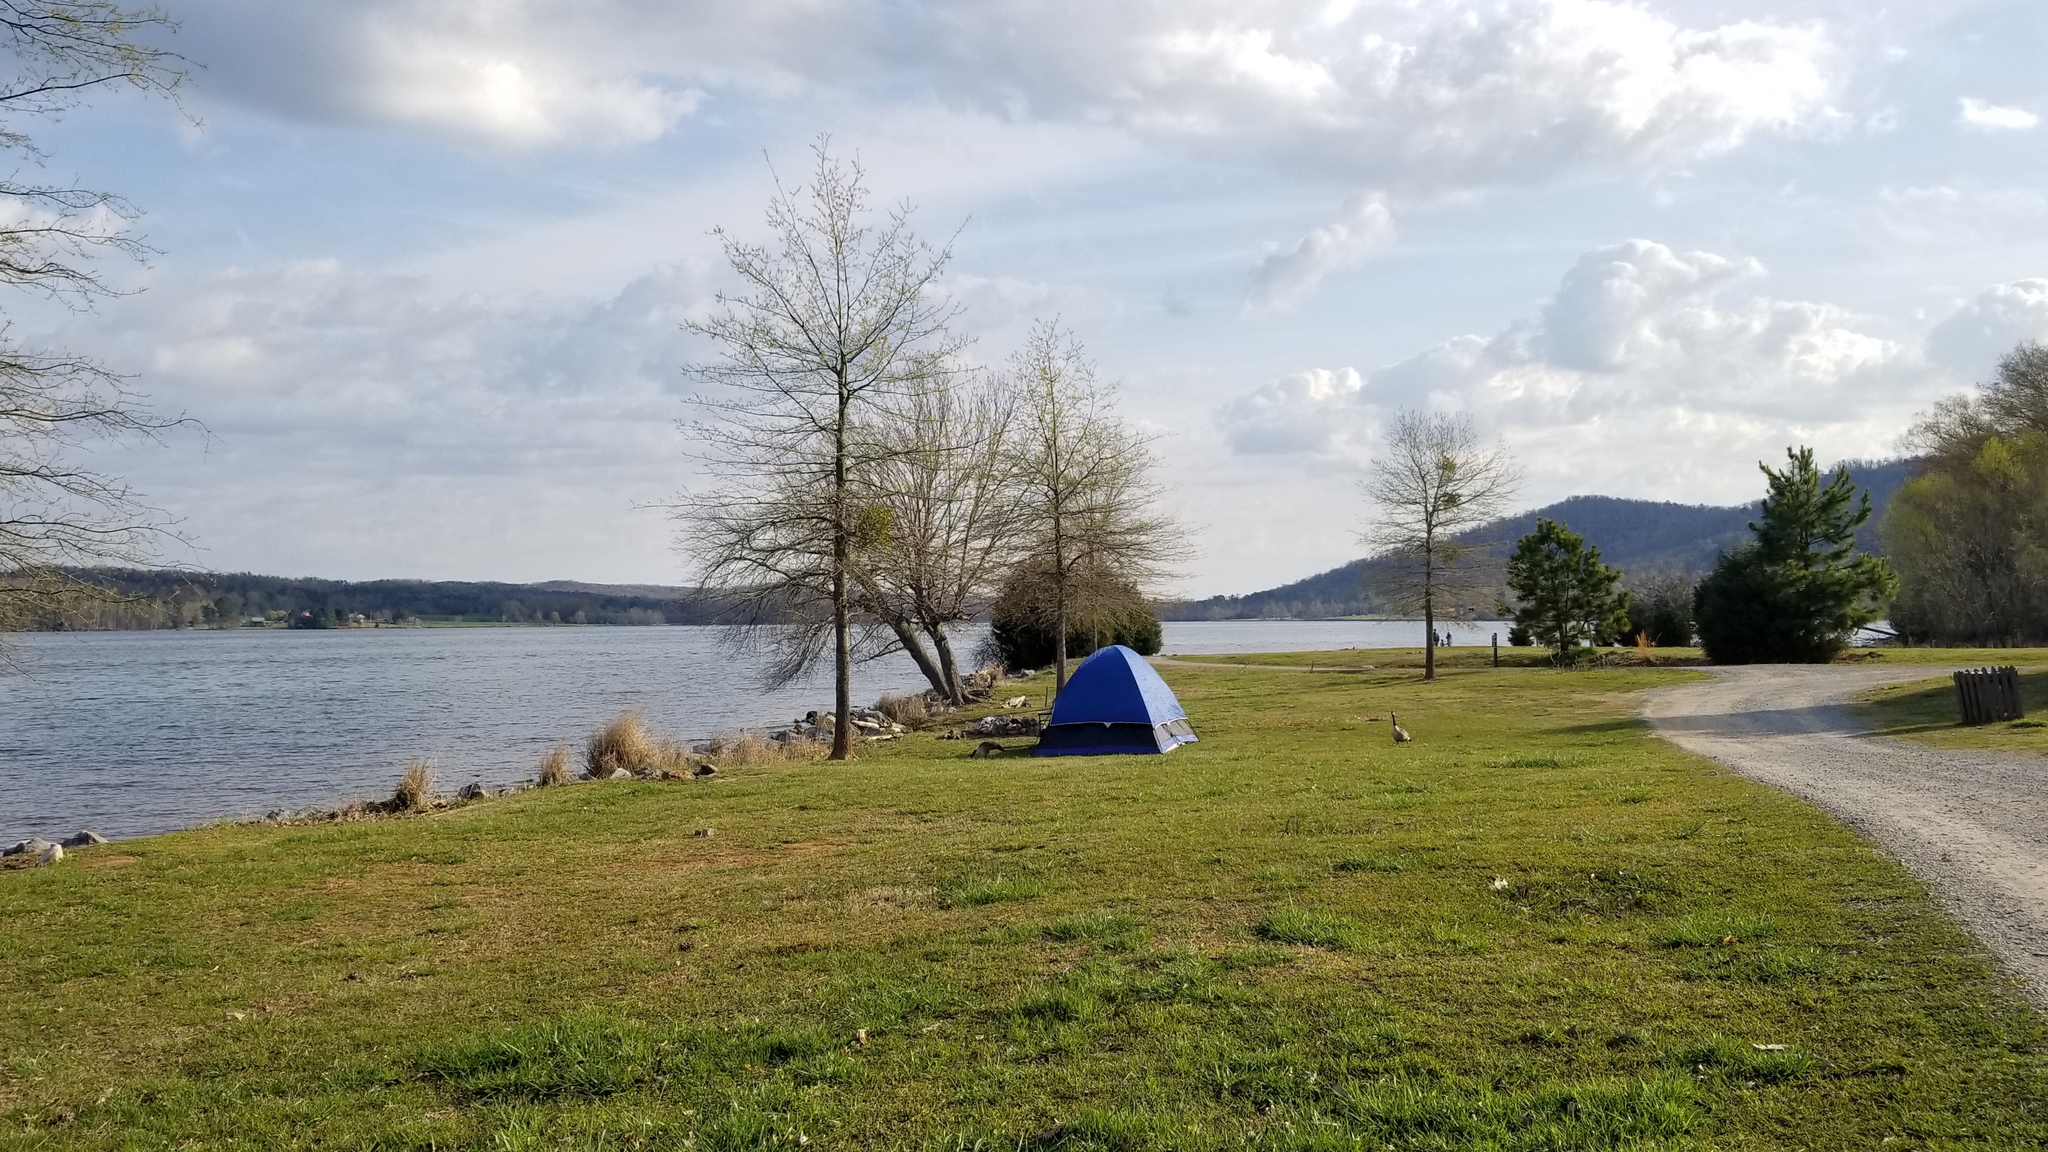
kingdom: Animalia
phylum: Chordata
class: Aves
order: Anseriformes
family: Anatidae
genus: Branta
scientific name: Branta canadensis
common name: Canada goose
